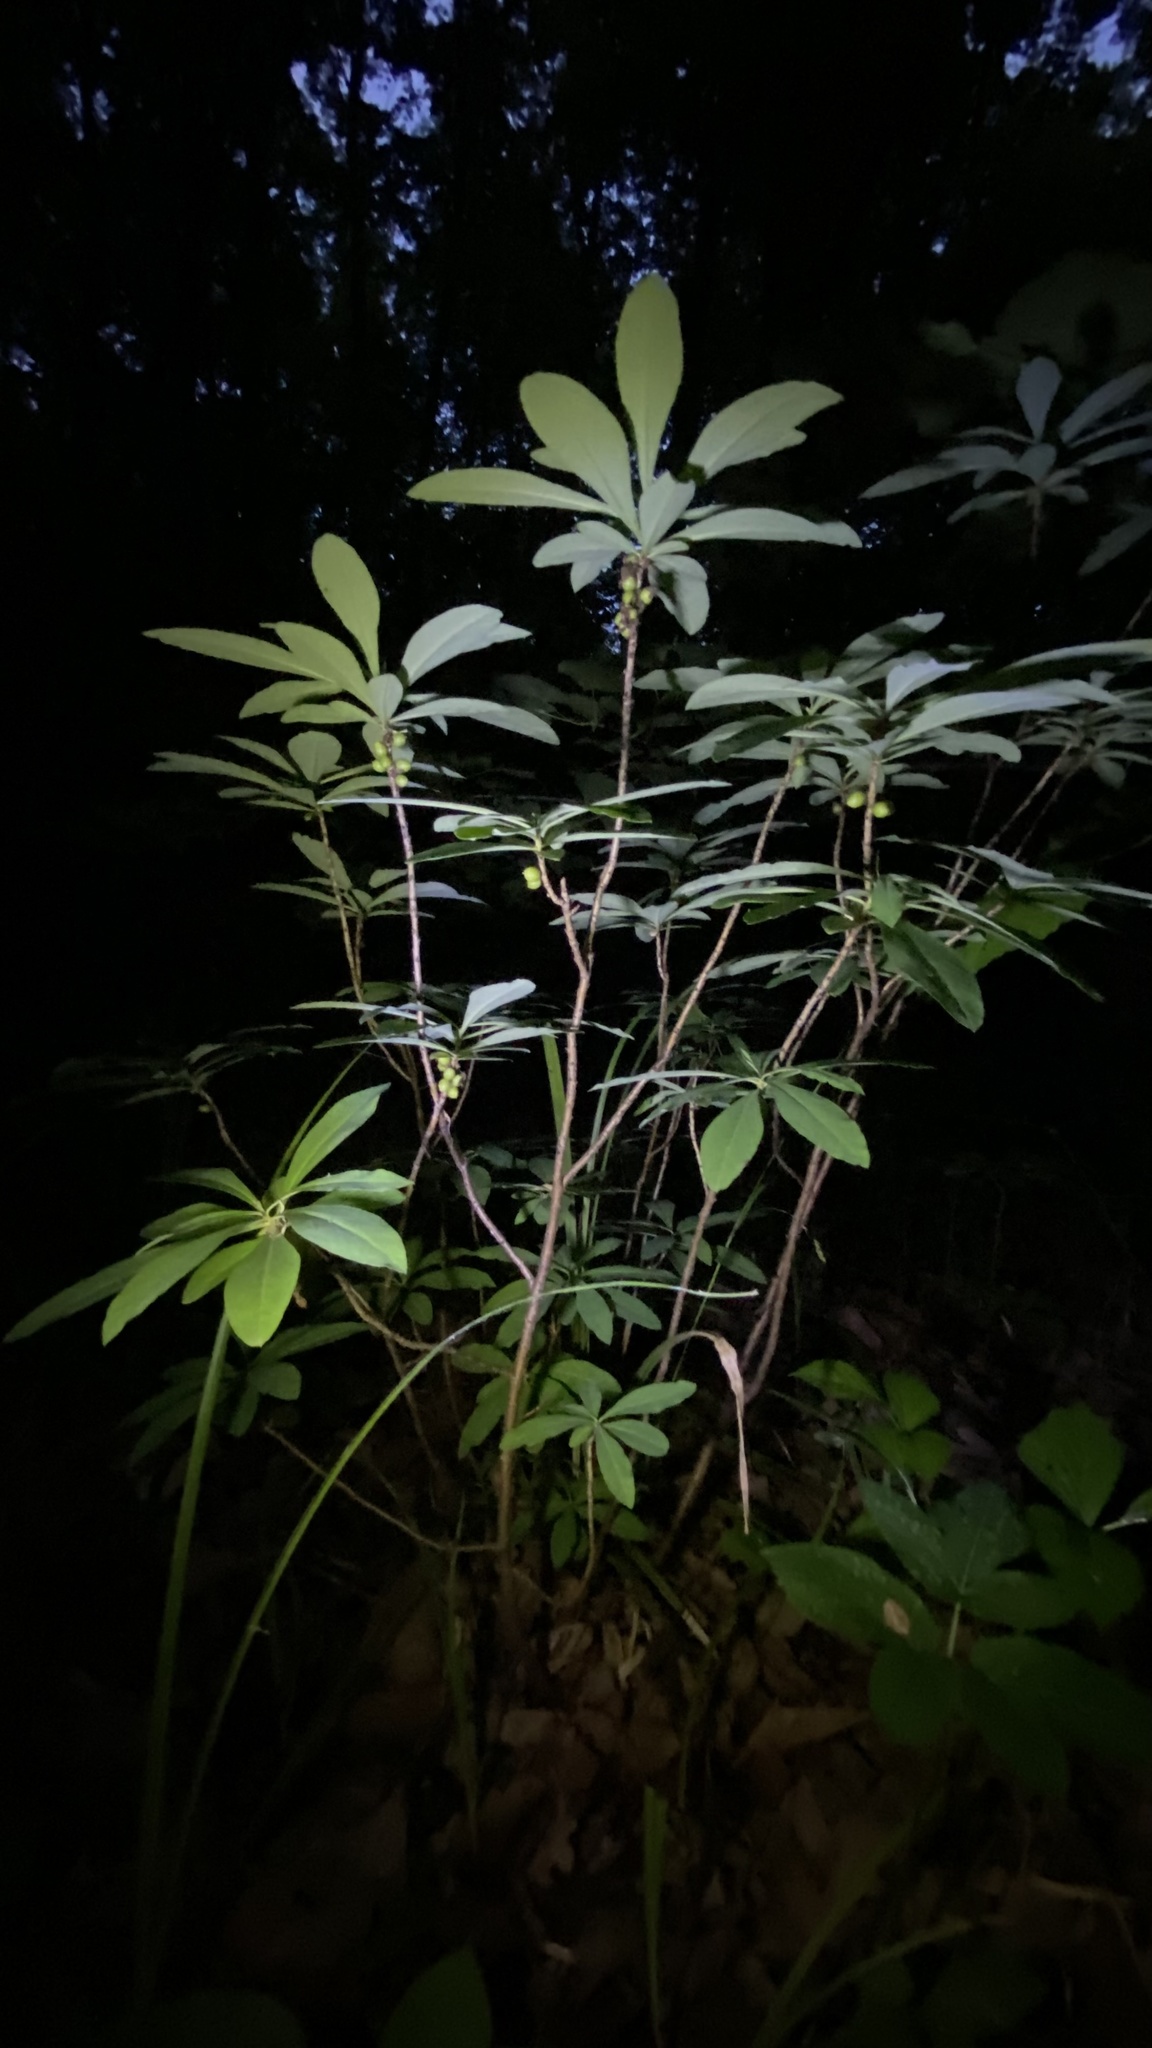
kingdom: Plantae
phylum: Tracheophyta
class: Magnoliopsida
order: Malvales
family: Thymelaeaceae
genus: Daphne
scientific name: Daphne mezereum
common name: Mezereon
